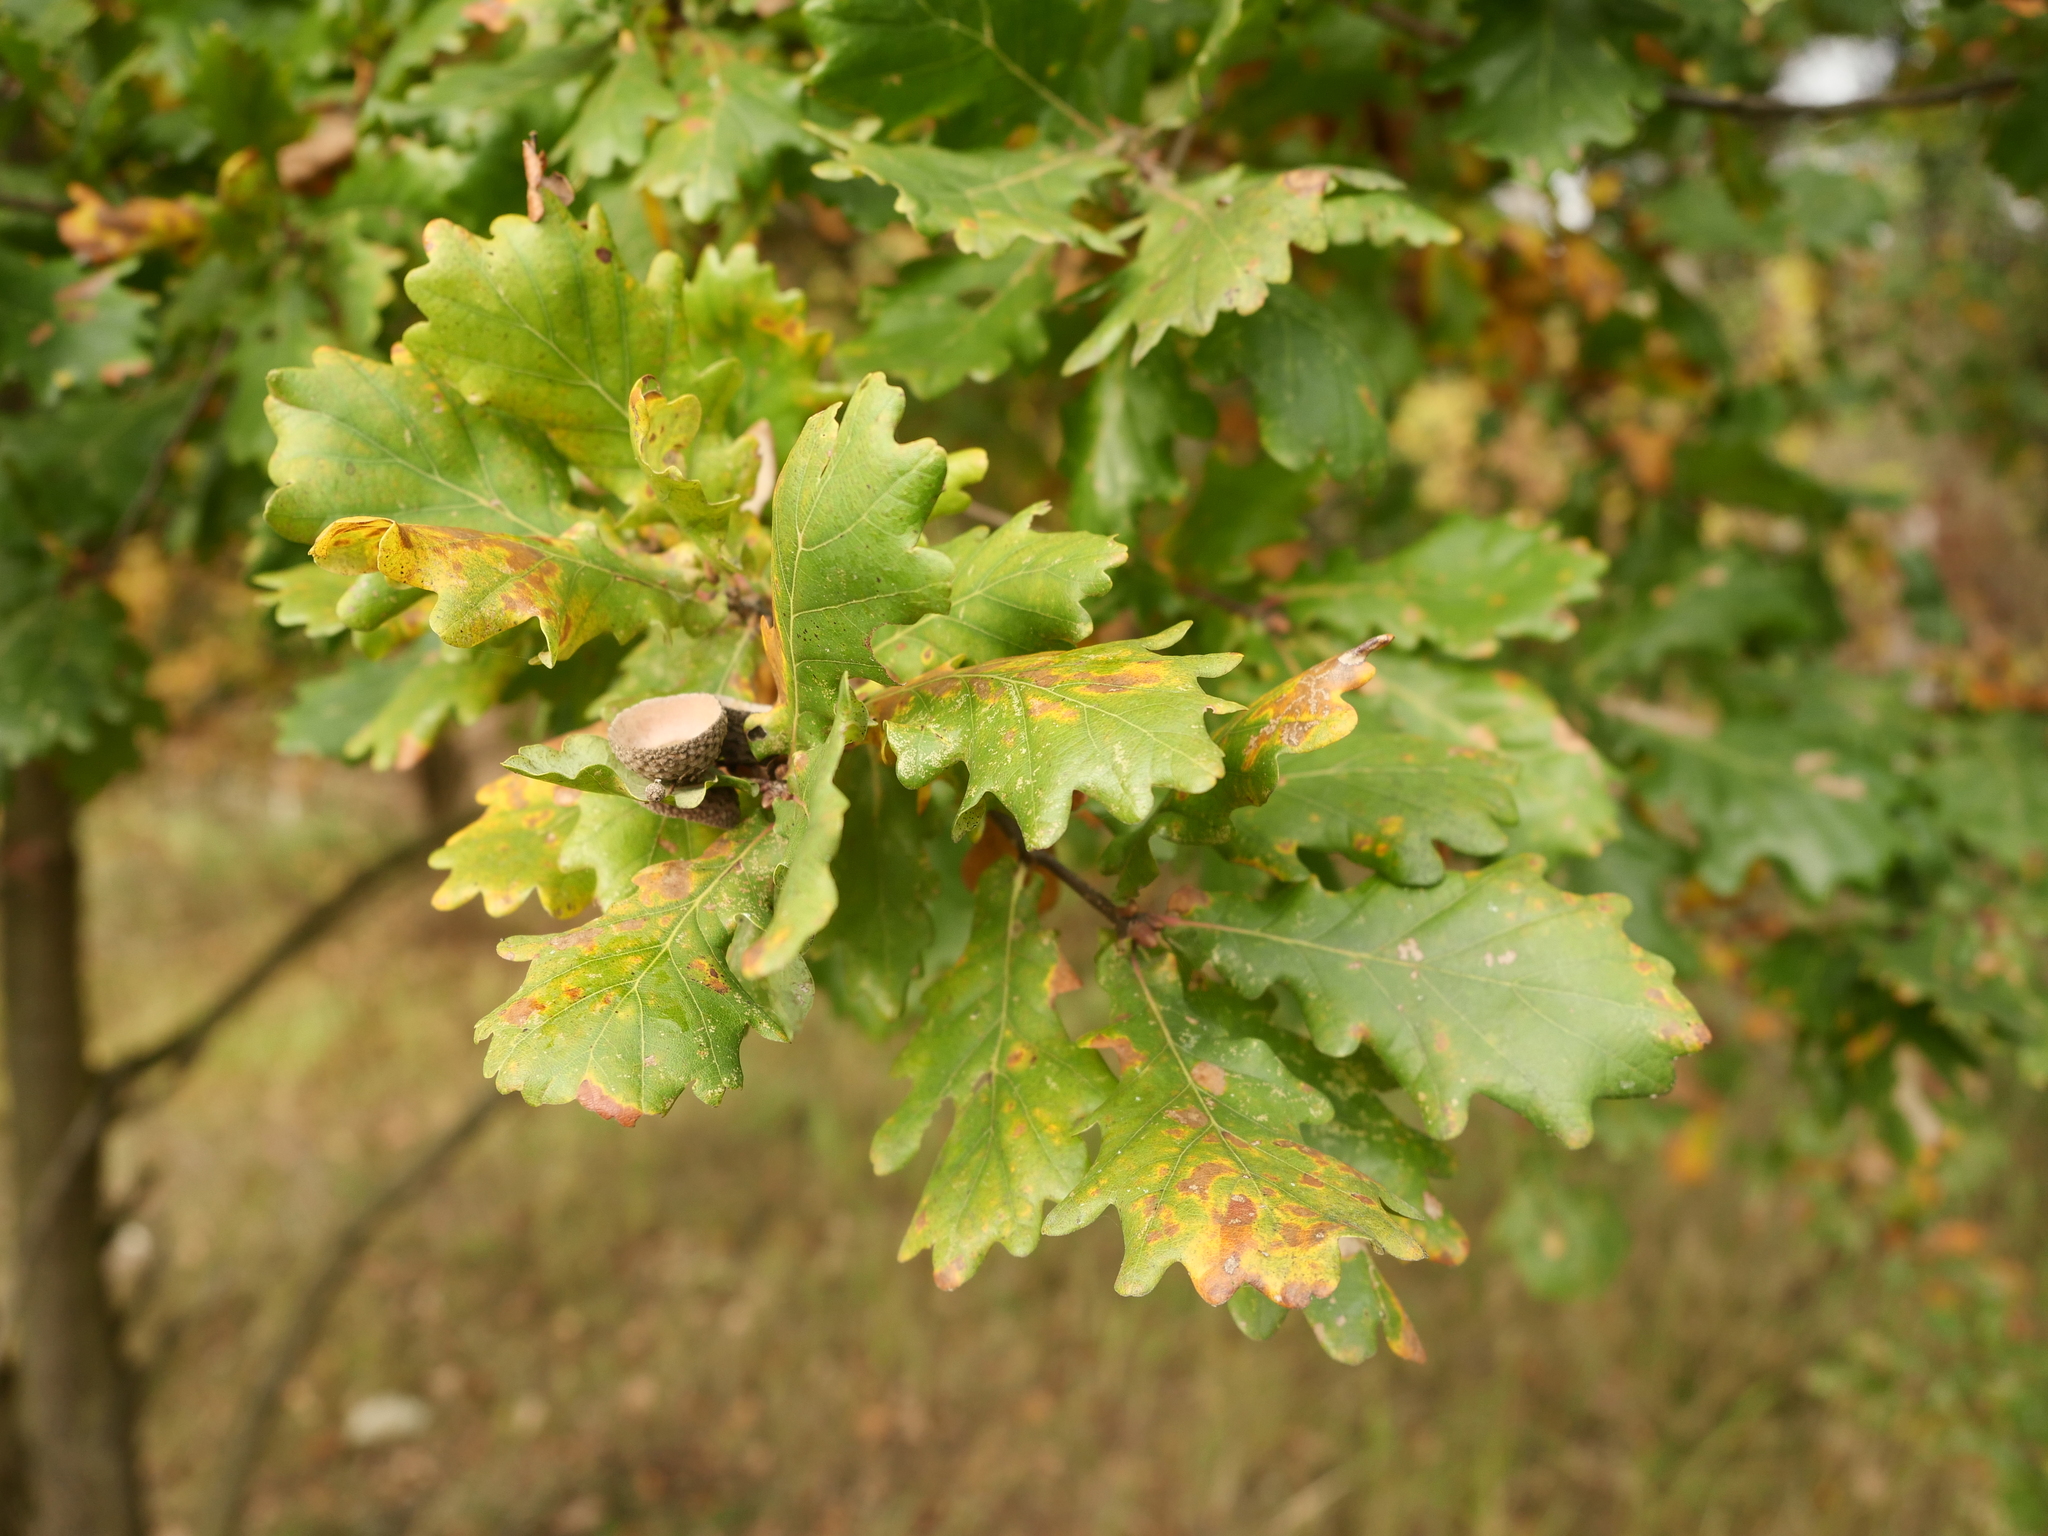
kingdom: Plantae
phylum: Tracheophyta
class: Magnoliopsida
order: Fagales
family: Fagaceae
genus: Quercus
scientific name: Quercus robur
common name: Pedunculate oak
